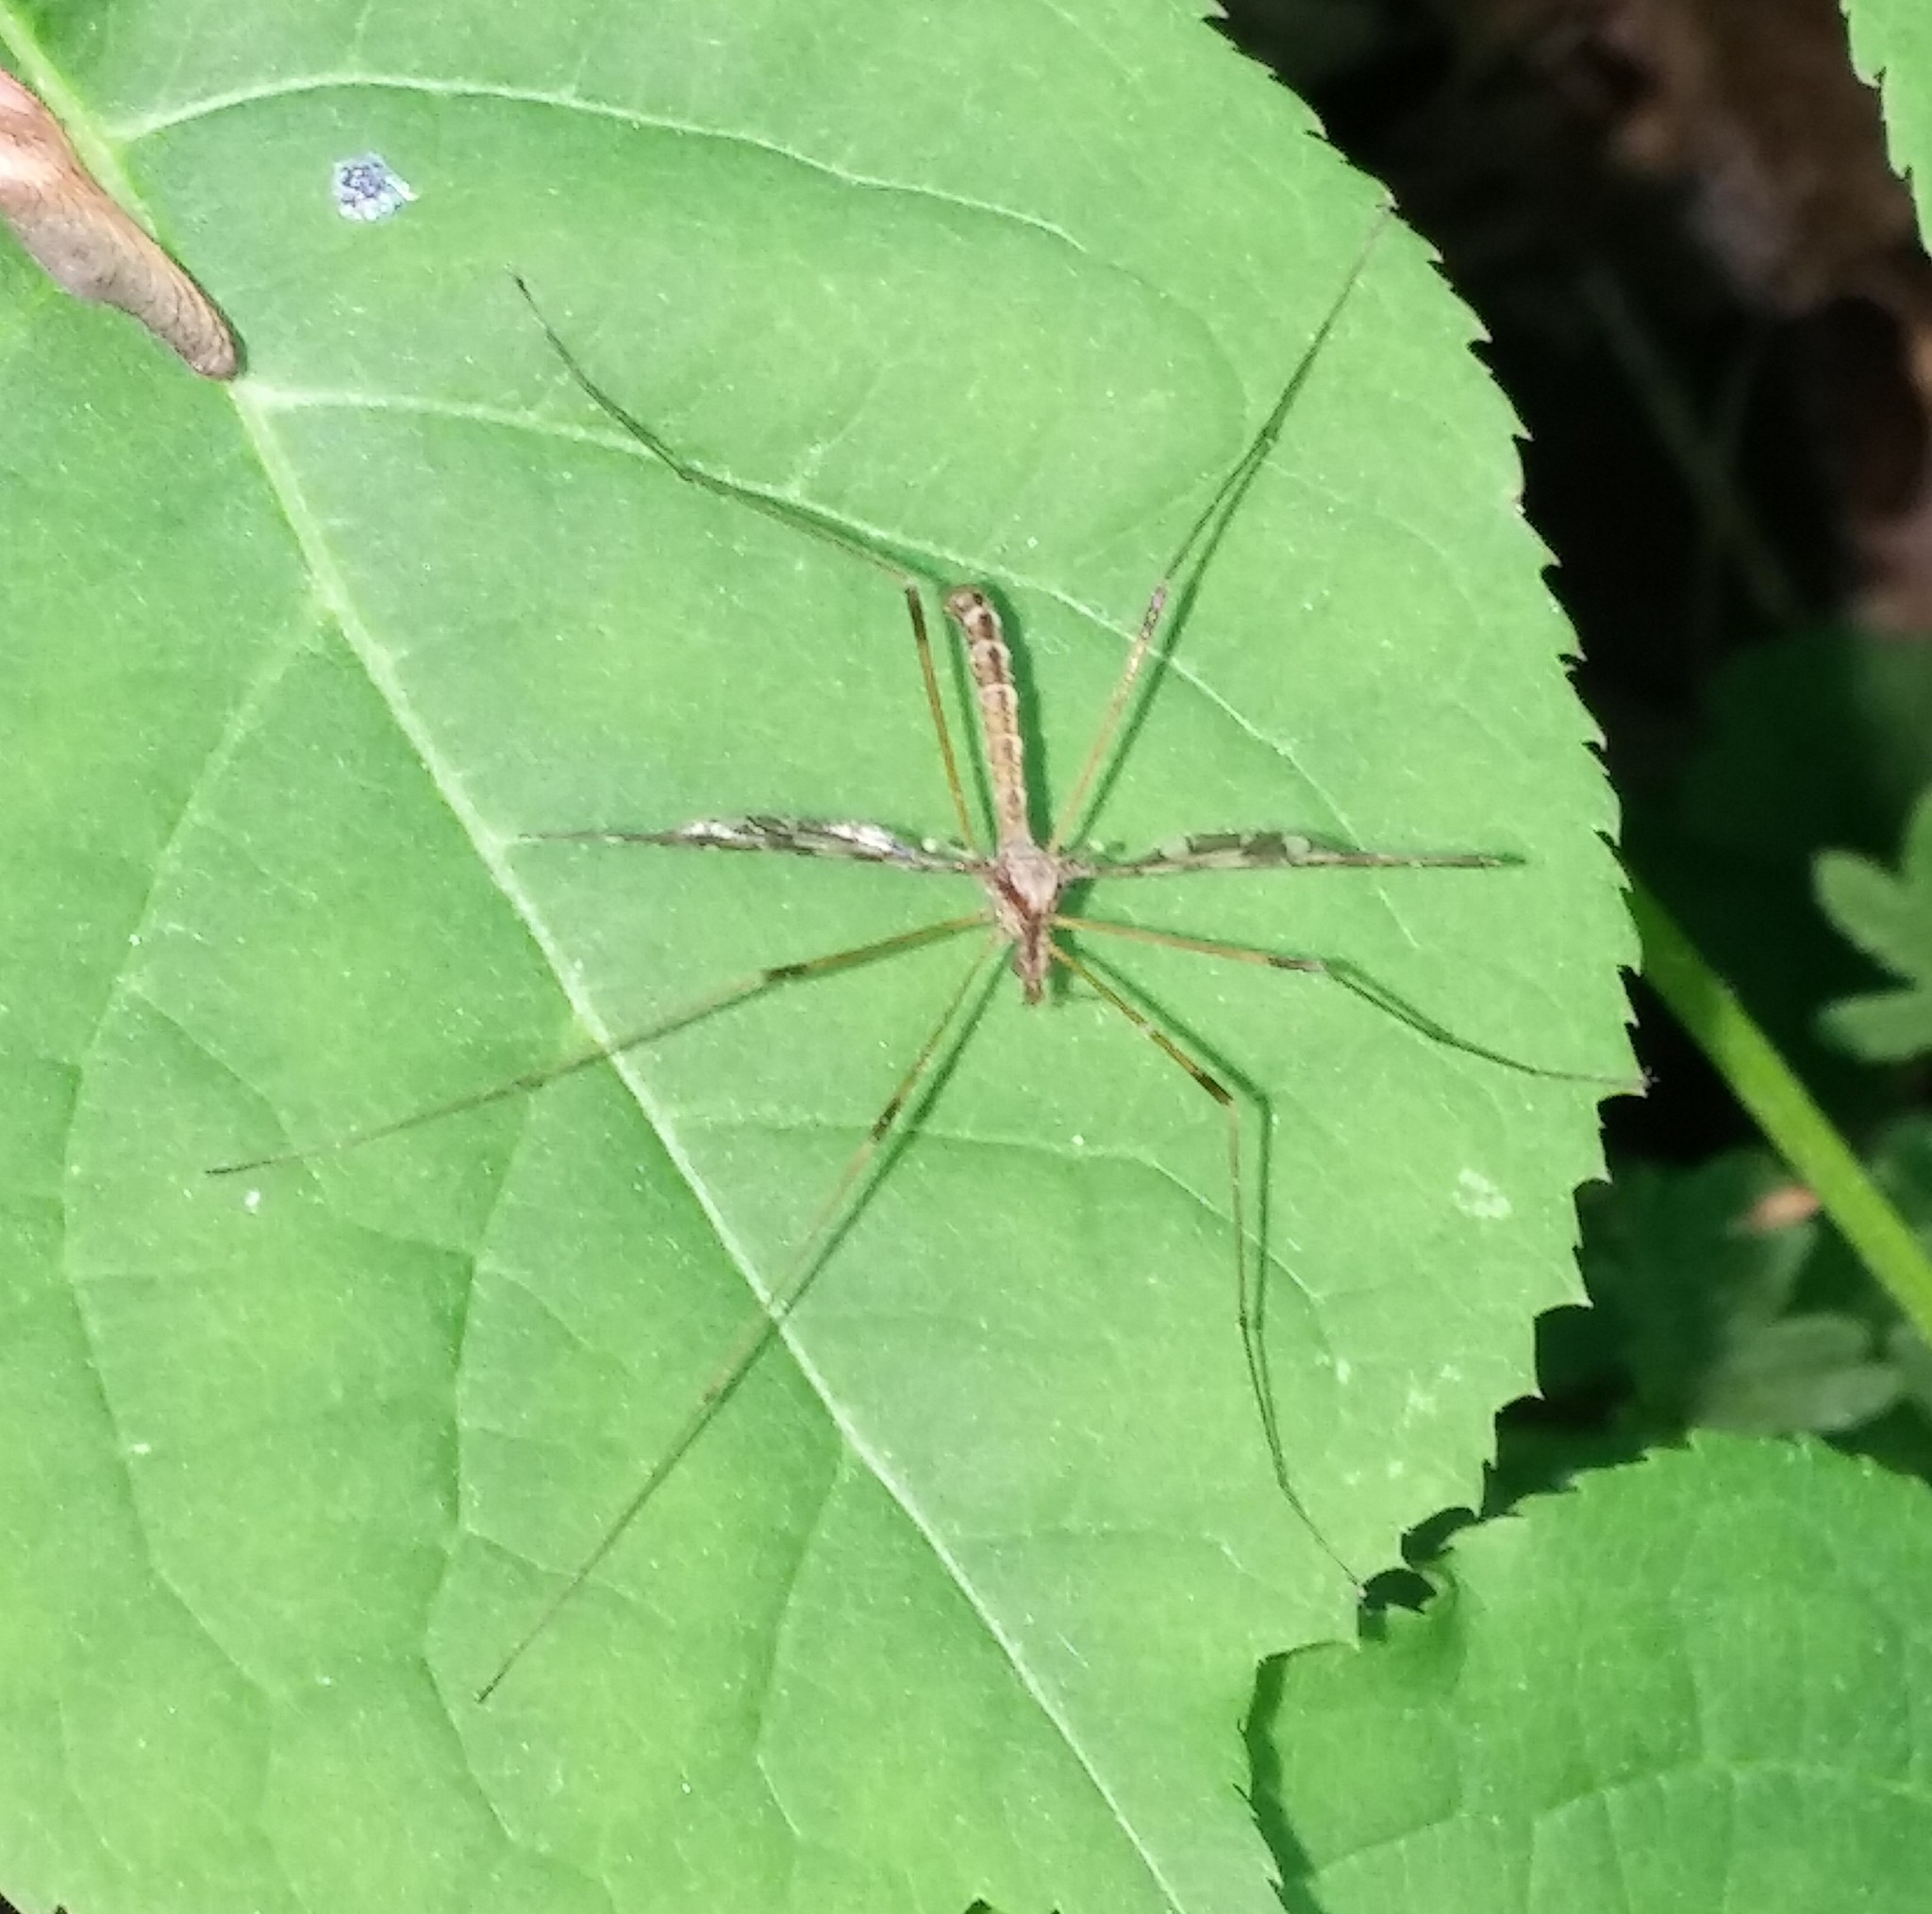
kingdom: Animalia
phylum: Arthropoda
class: Insecta
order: Diptera
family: Limoniidae
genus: Epiphragma
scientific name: Epiphragma fasciapenne
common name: Band-winged crane fly
